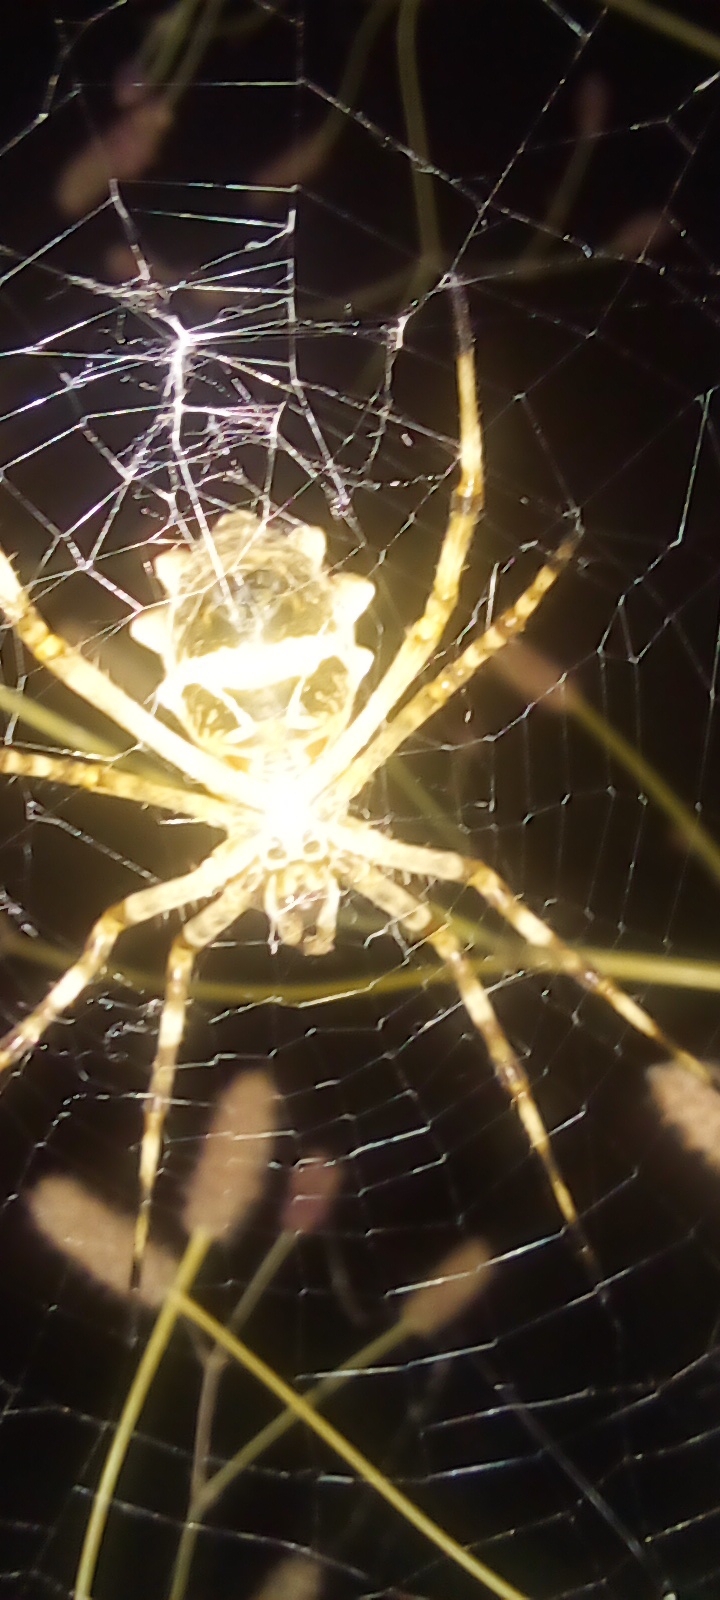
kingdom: Animalia
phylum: Arthropoda
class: Arachnida
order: Araneae
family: Araneidae
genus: Argiope
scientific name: Argiope argentata
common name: Orb weavers
